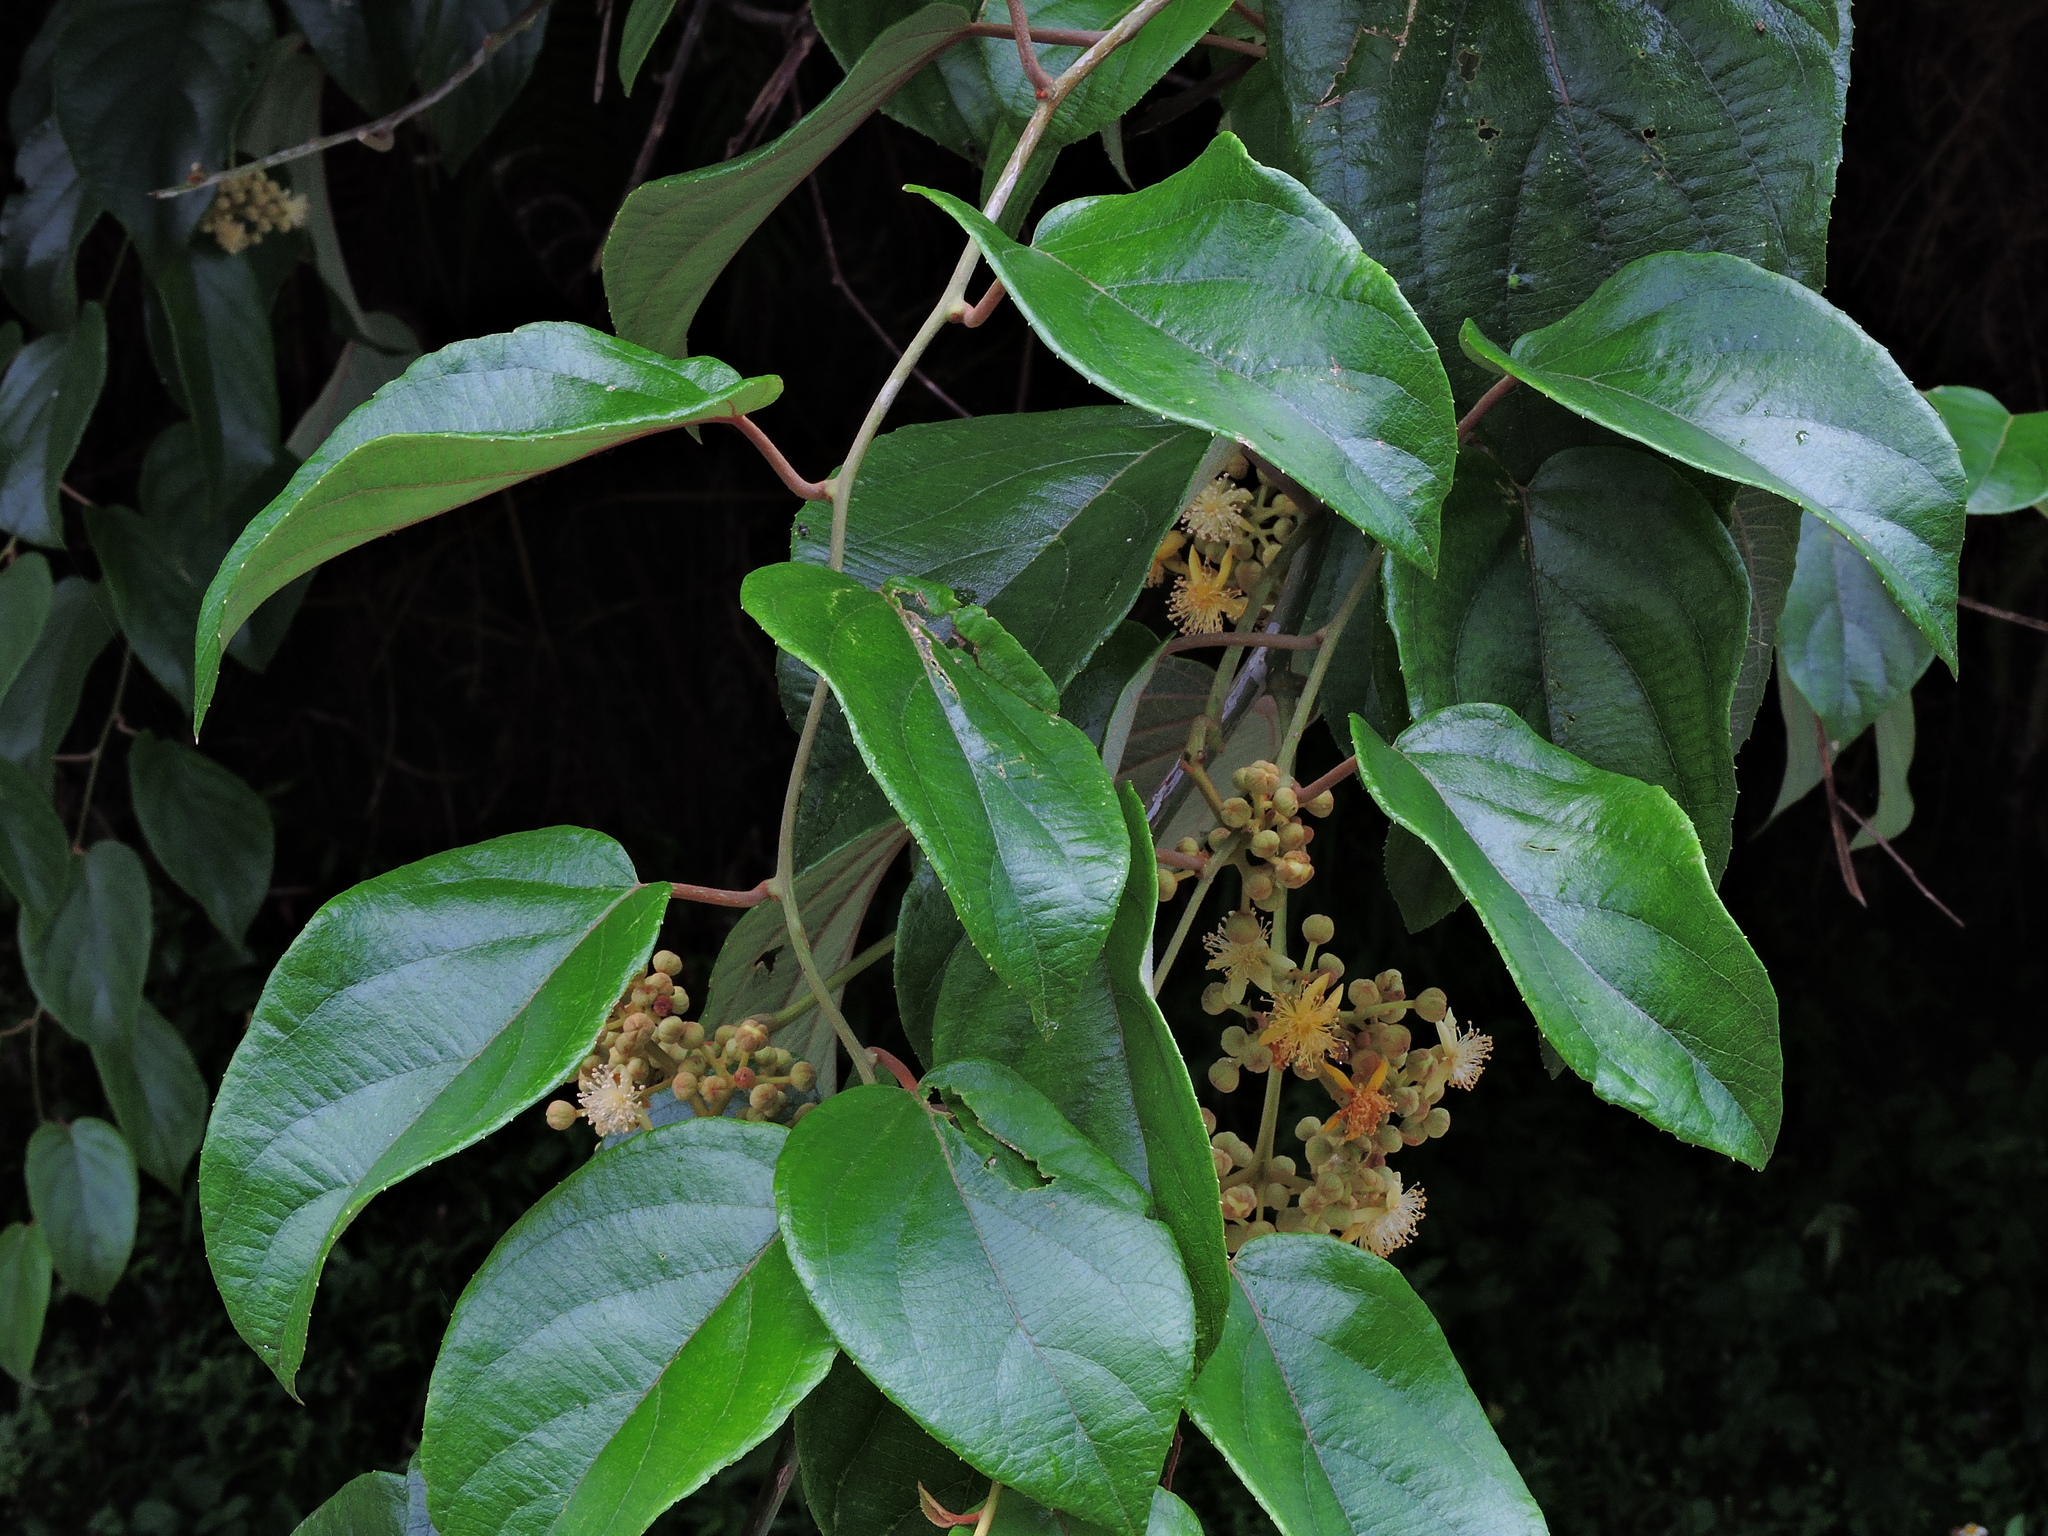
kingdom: Plantae
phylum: Tracheophyta
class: Magnoliopsida
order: Ericales
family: Actinidiaceae
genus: Actinidia
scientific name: Actinidia latifolia
